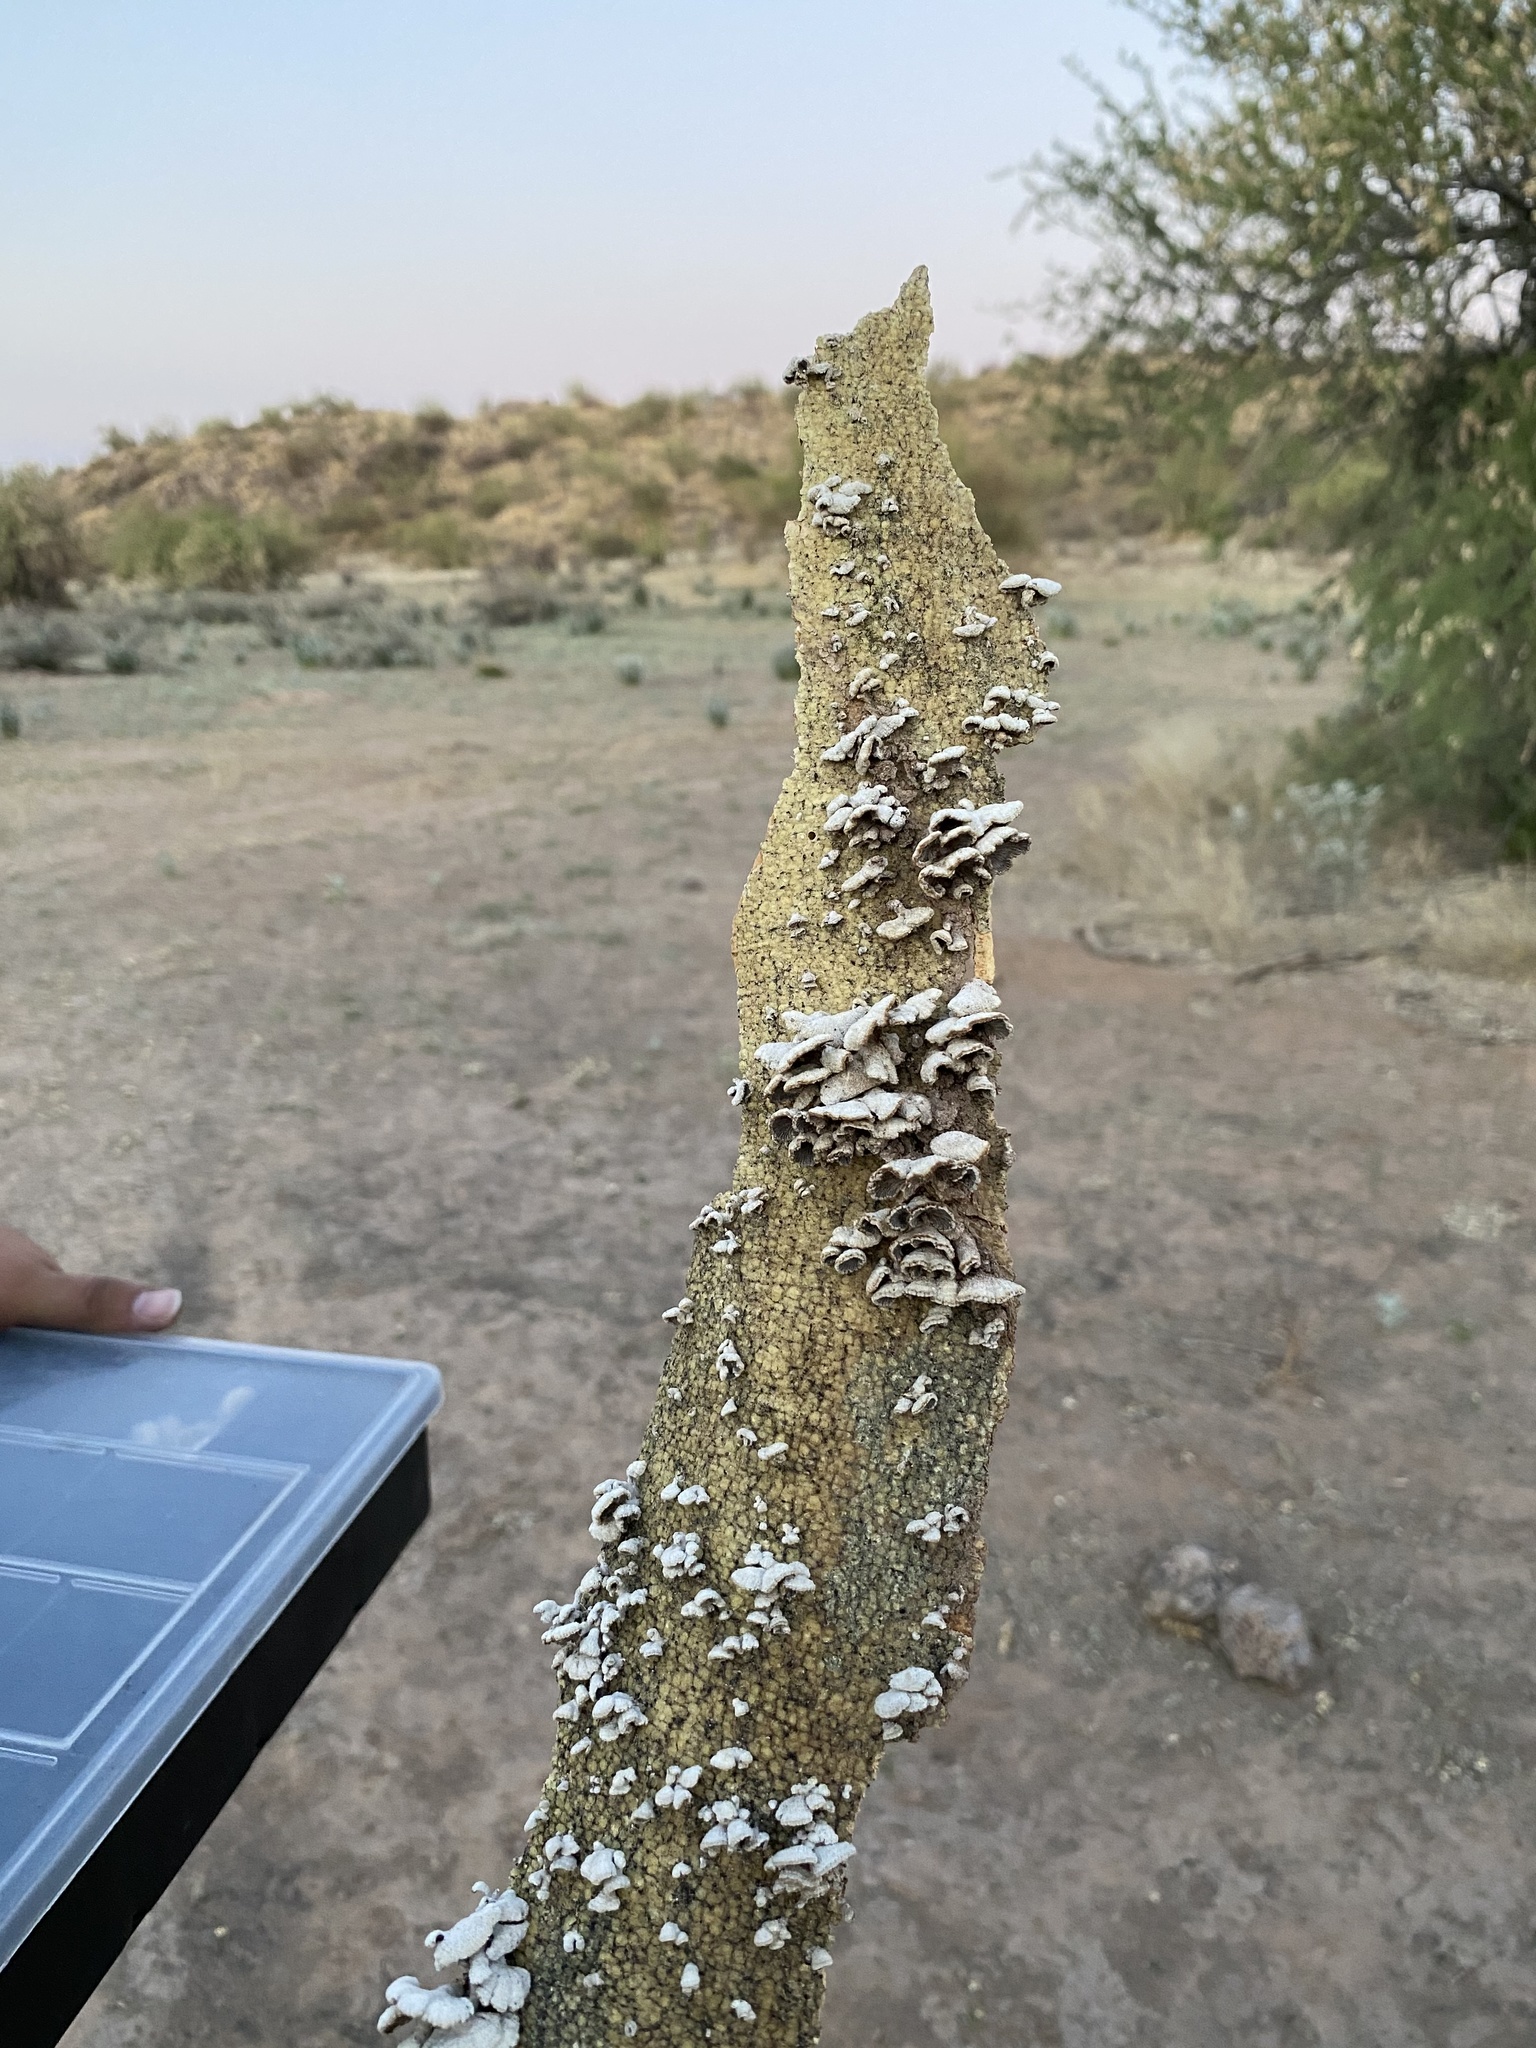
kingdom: Fungi
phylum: Basidiomycota
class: Agaricomycetes
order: Agaricales
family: Schizophyllaceae
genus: Schizophyllum
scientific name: Schizophyllum commune
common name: Common porecrust
